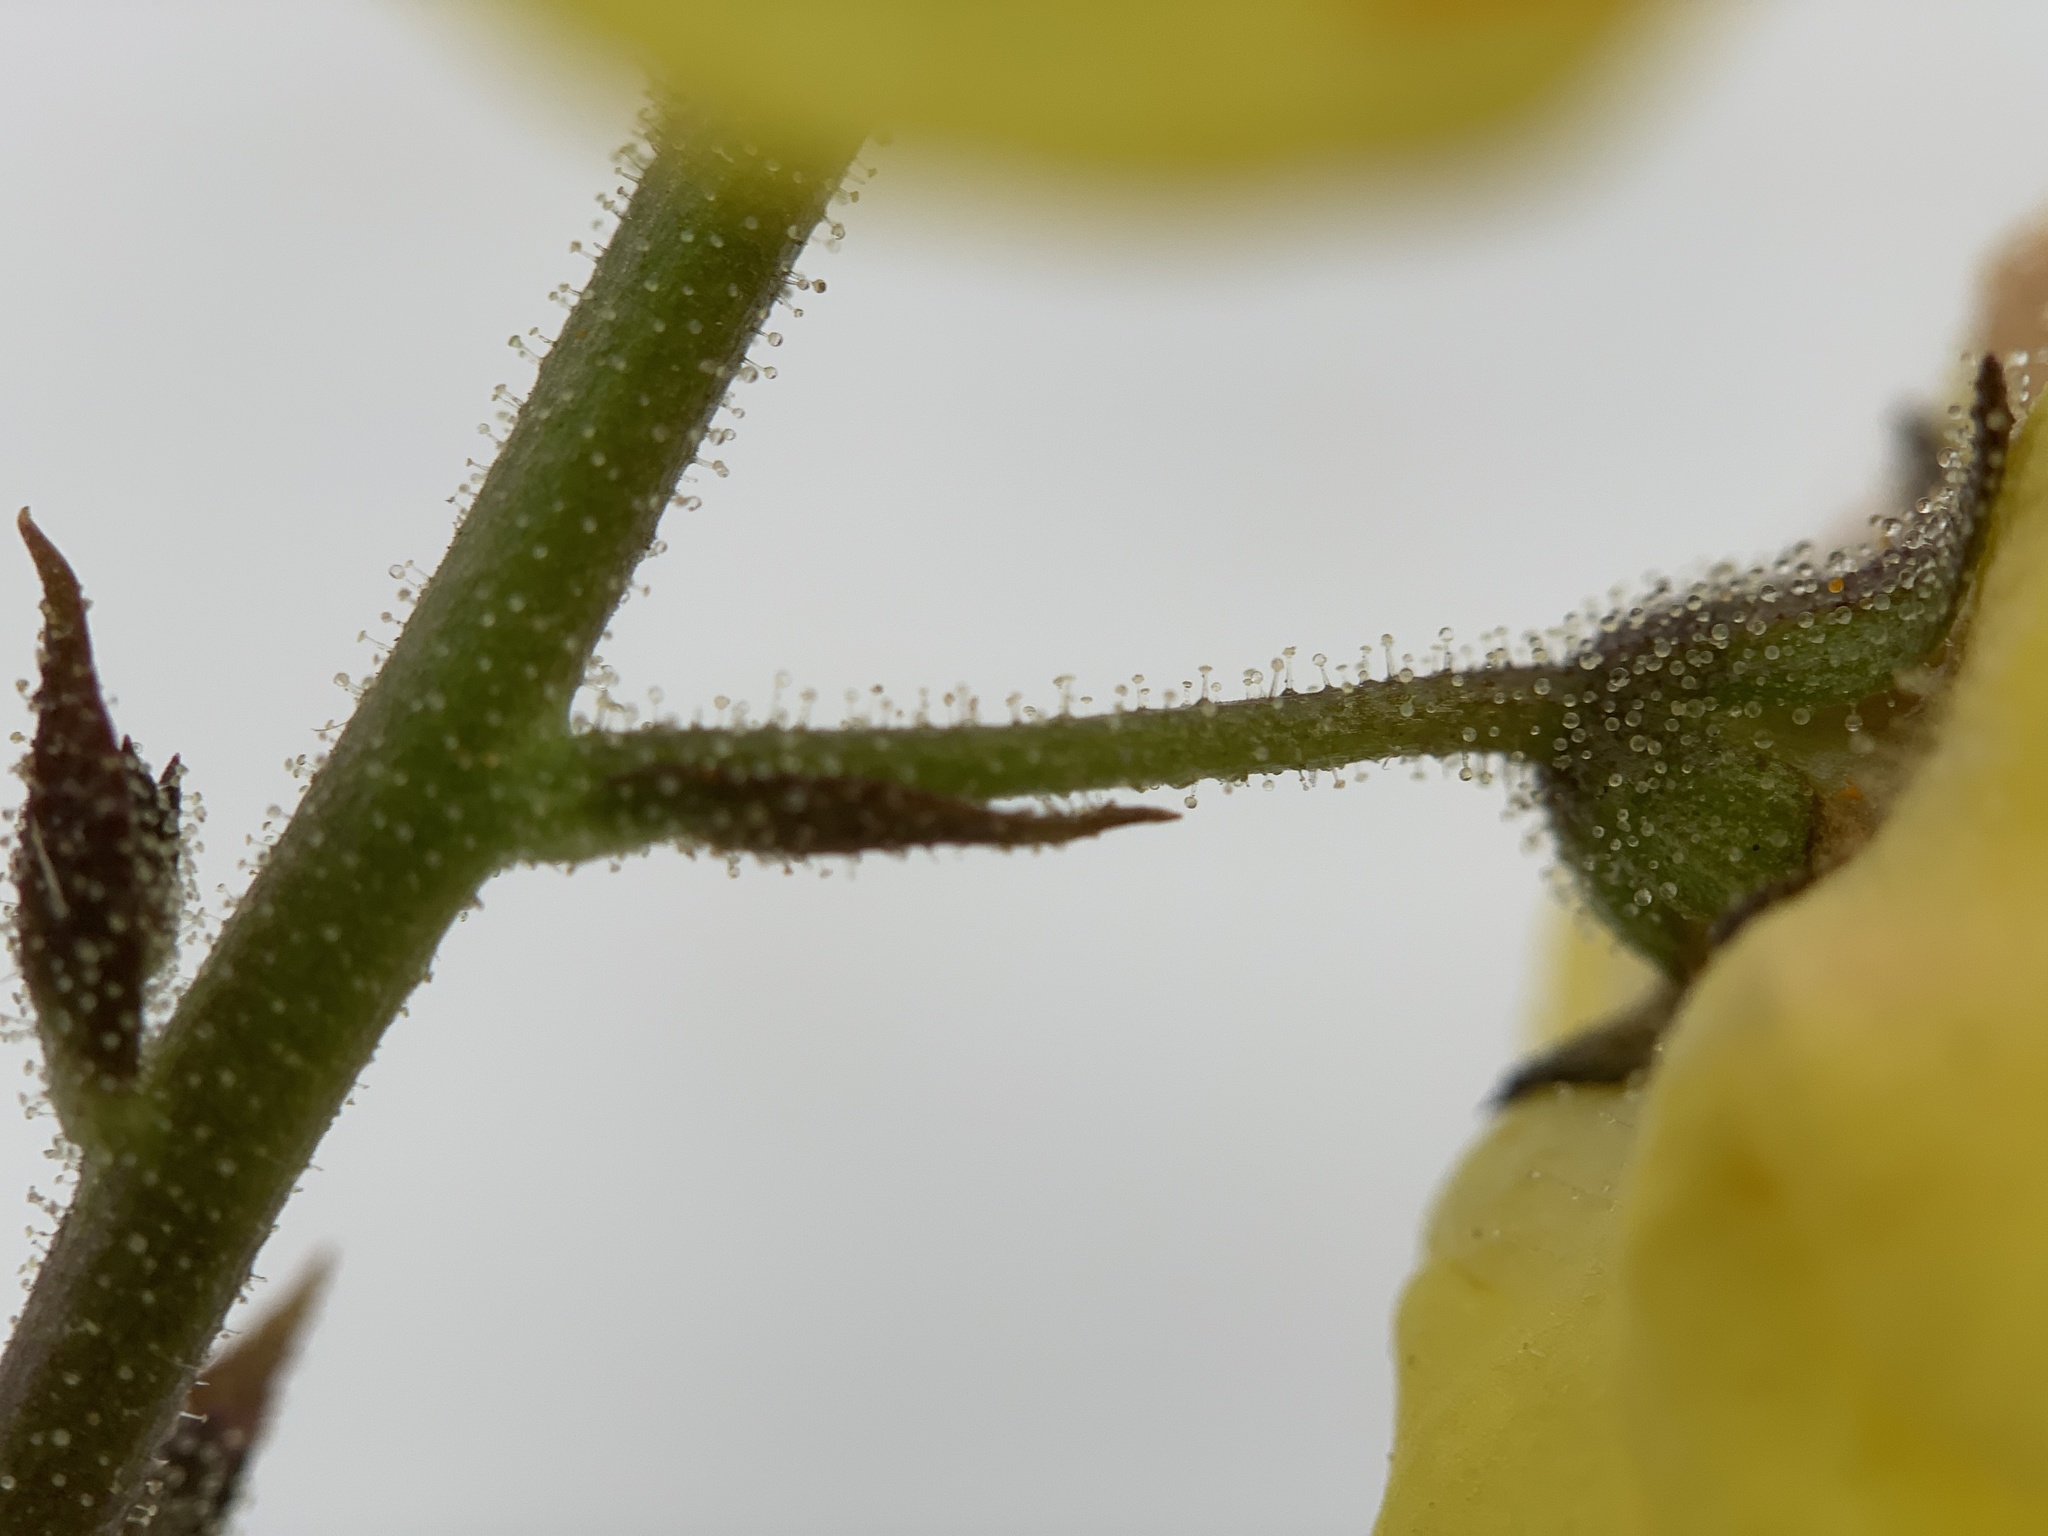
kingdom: Plantae
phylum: Tracheophyta
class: Magnoliopsida
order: Lamiales
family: Scrophulariaceae
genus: Verbascum
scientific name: Verbascum blattaria
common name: Moth mullein
